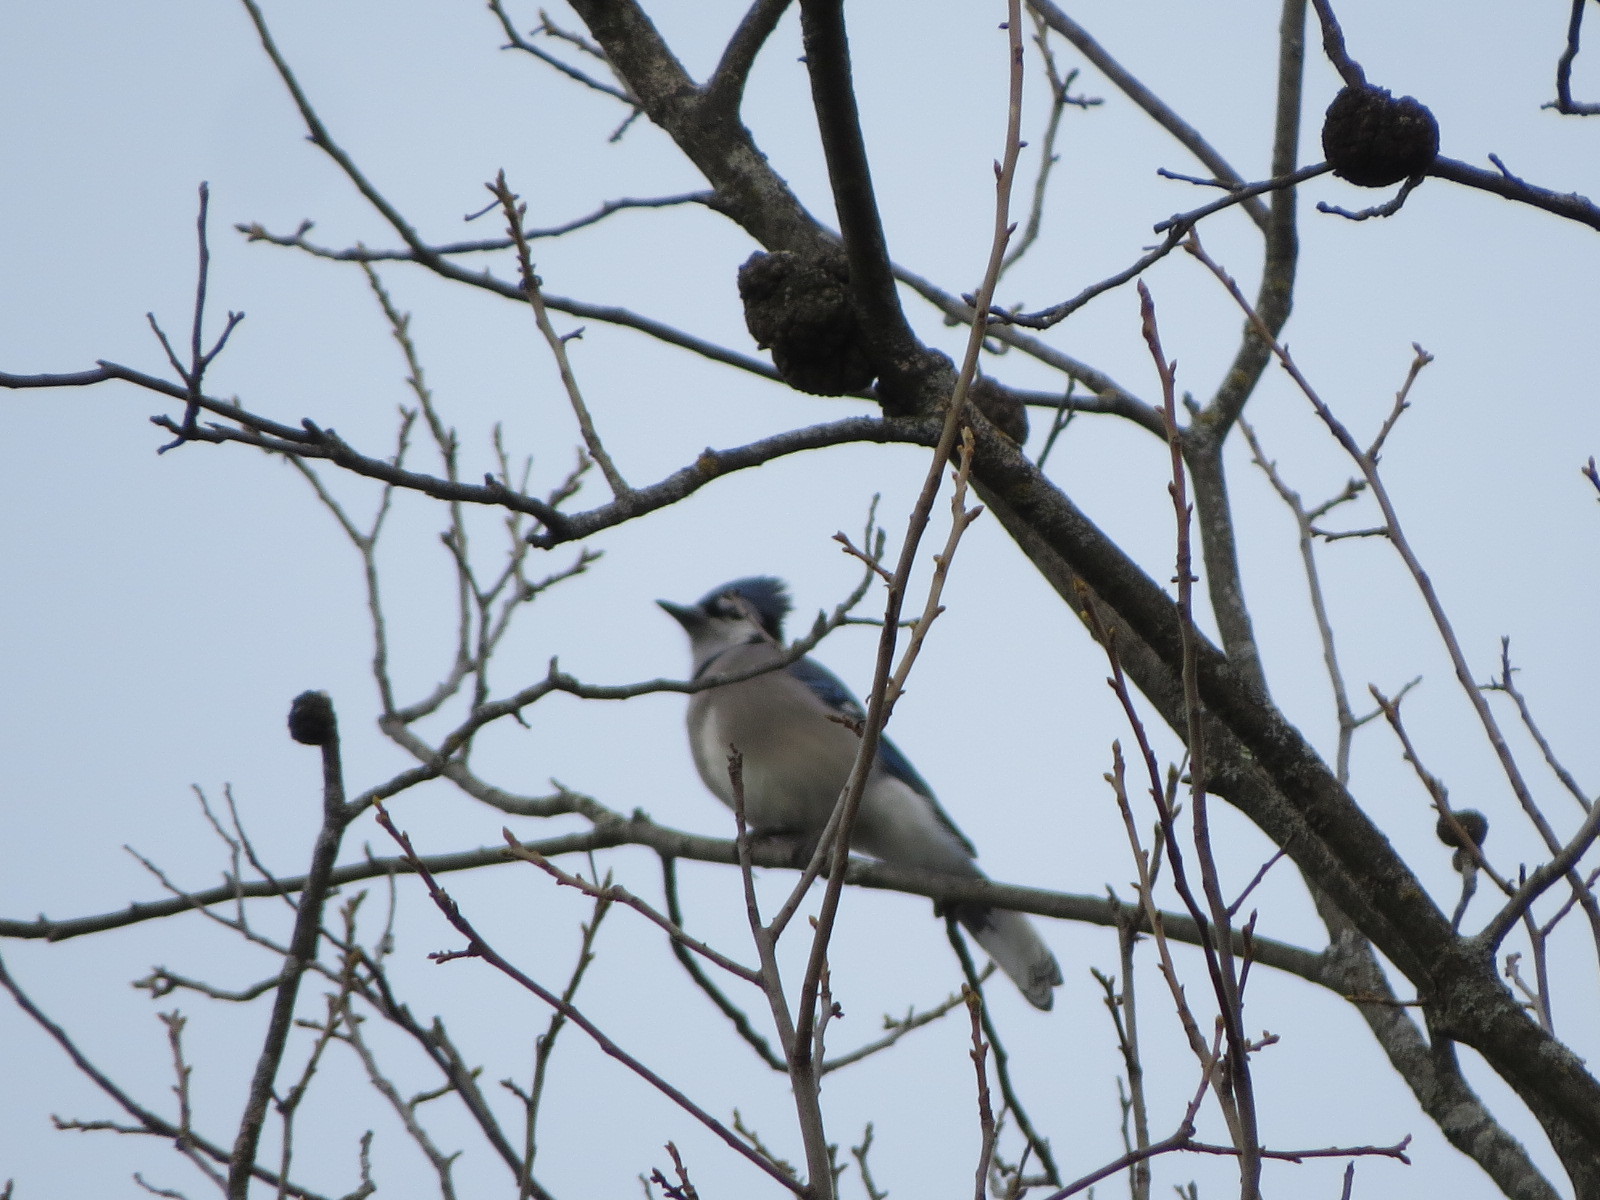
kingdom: Animalia
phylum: Chordata
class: Aves
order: Passeriformes
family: Corvidae
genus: Cyanocitta
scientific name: Cyanocitta cristata
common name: Blue jay
